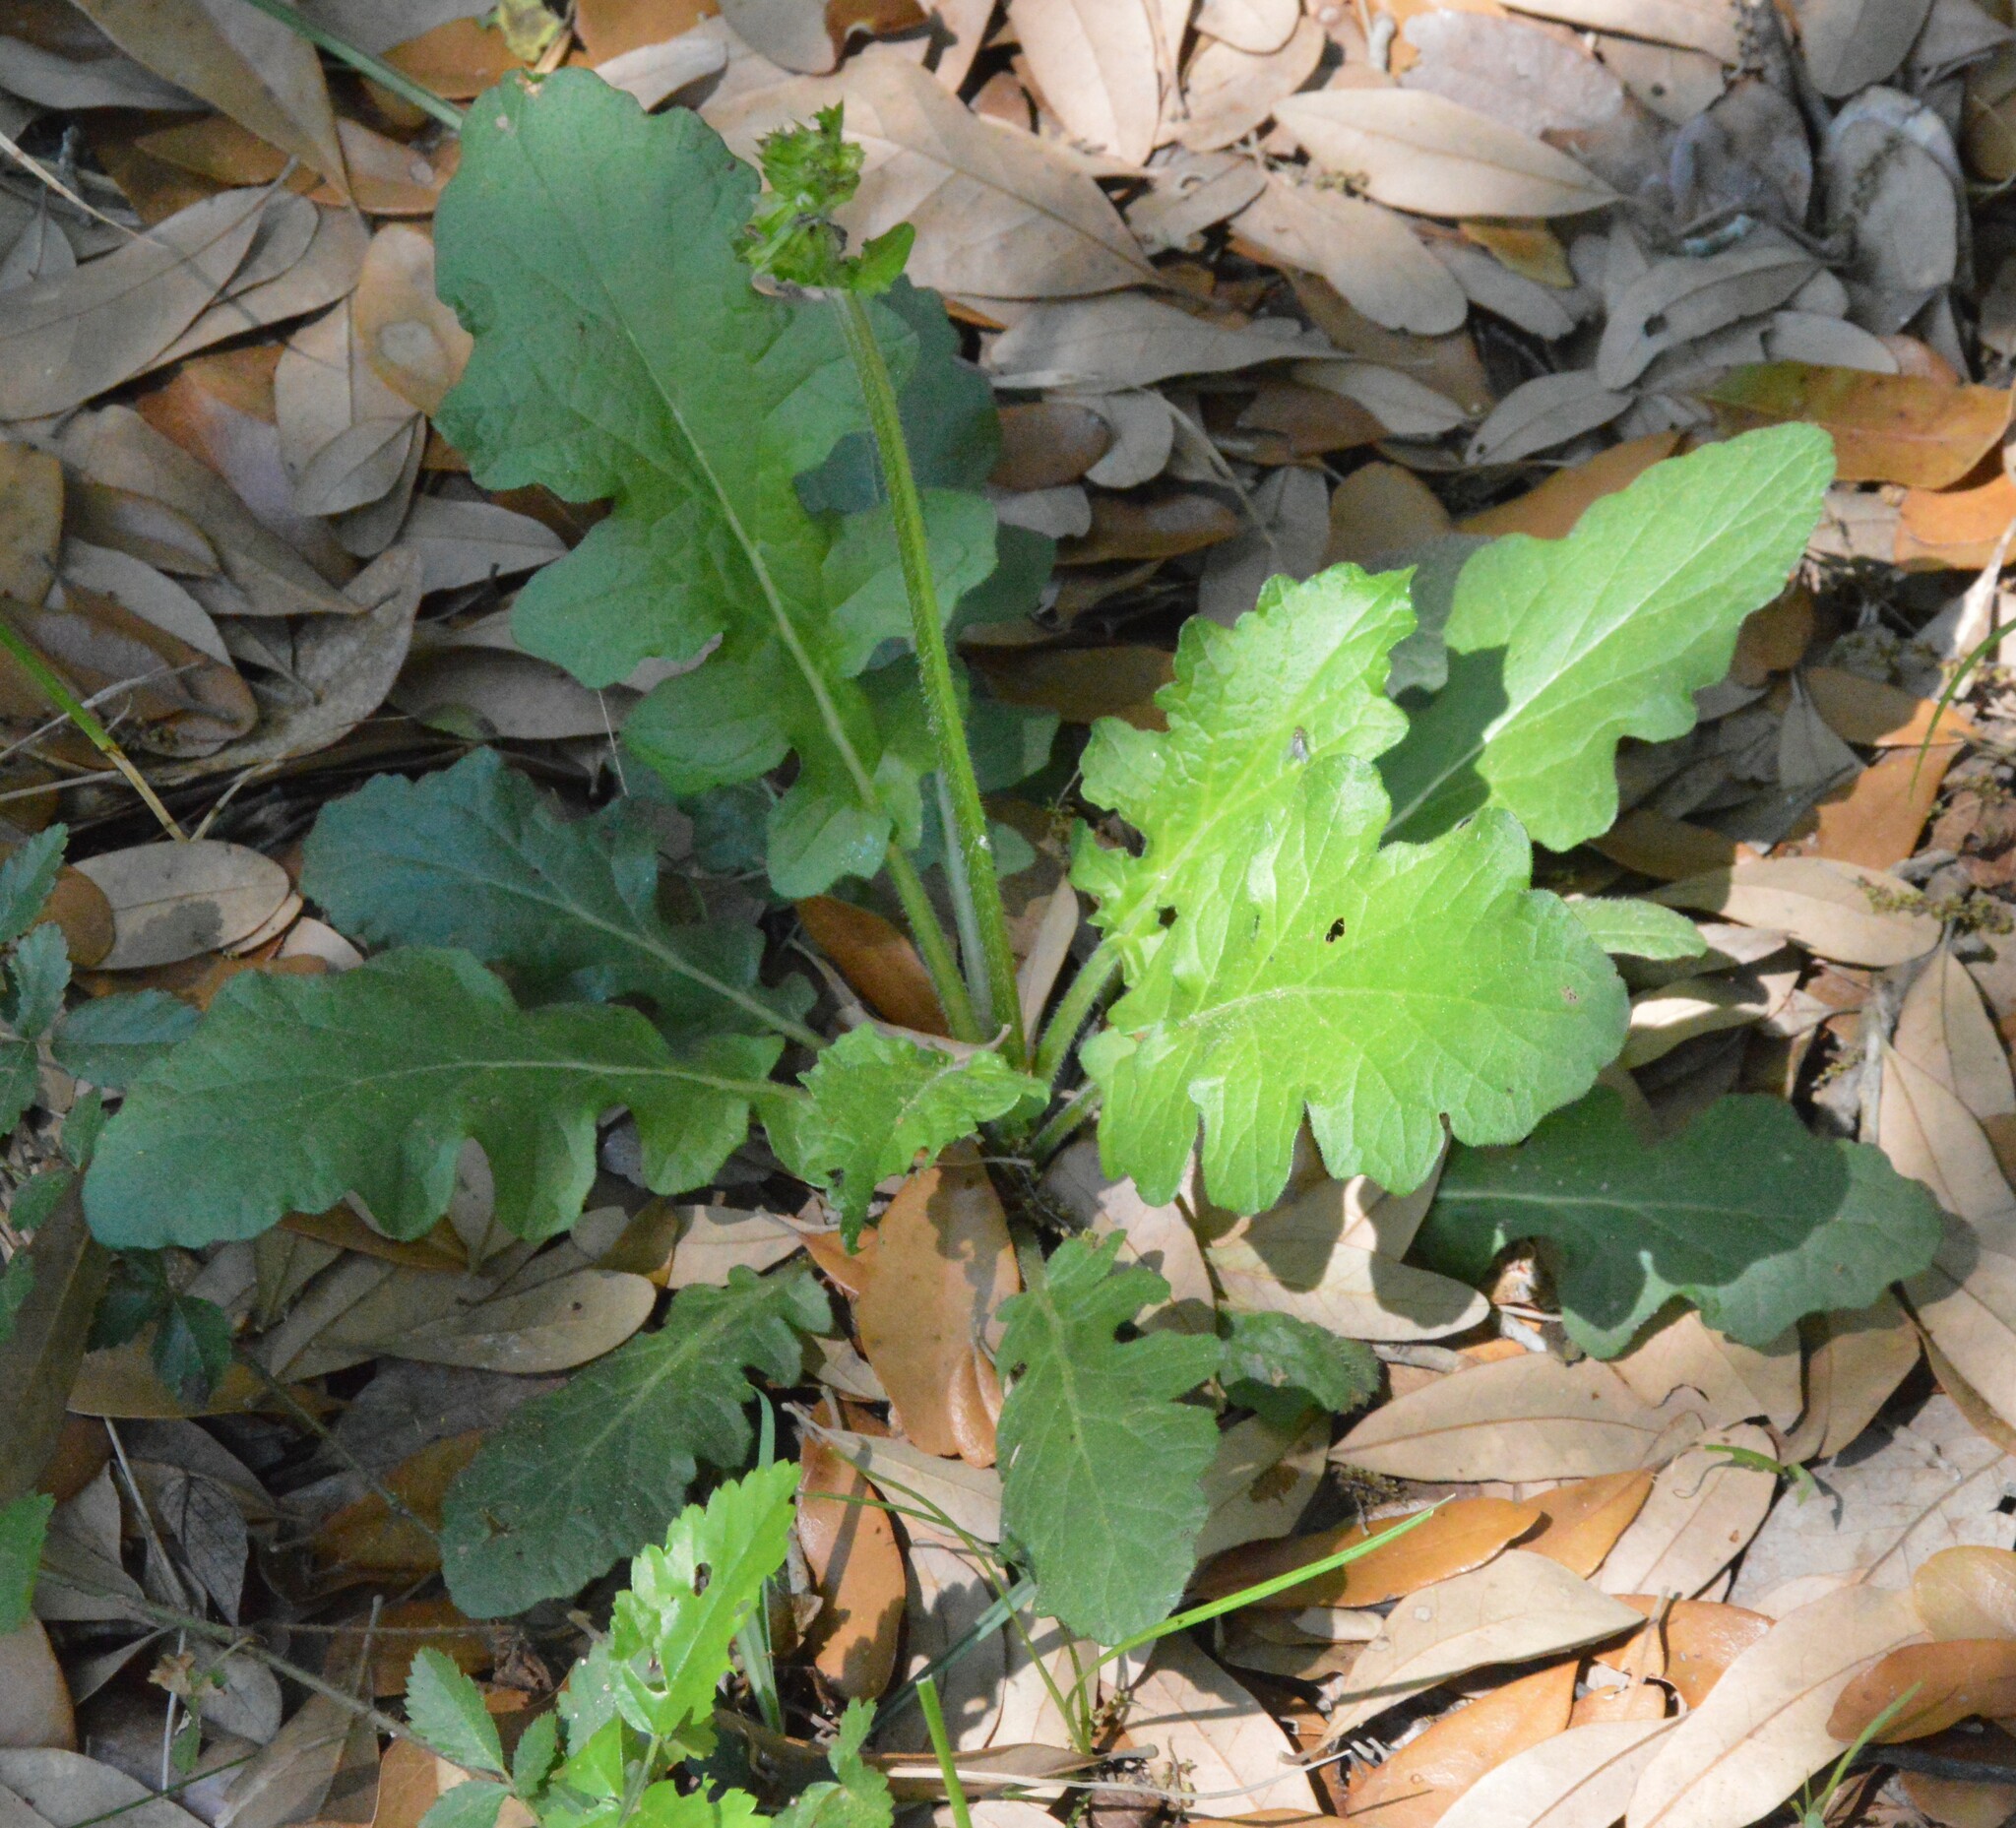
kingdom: Plantae
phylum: Tracheophyta
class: Magnoliopsida
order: Lamiales
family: Lamiaceae
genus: Salvia
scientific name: Salvia lyrata
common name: Cancerweed
